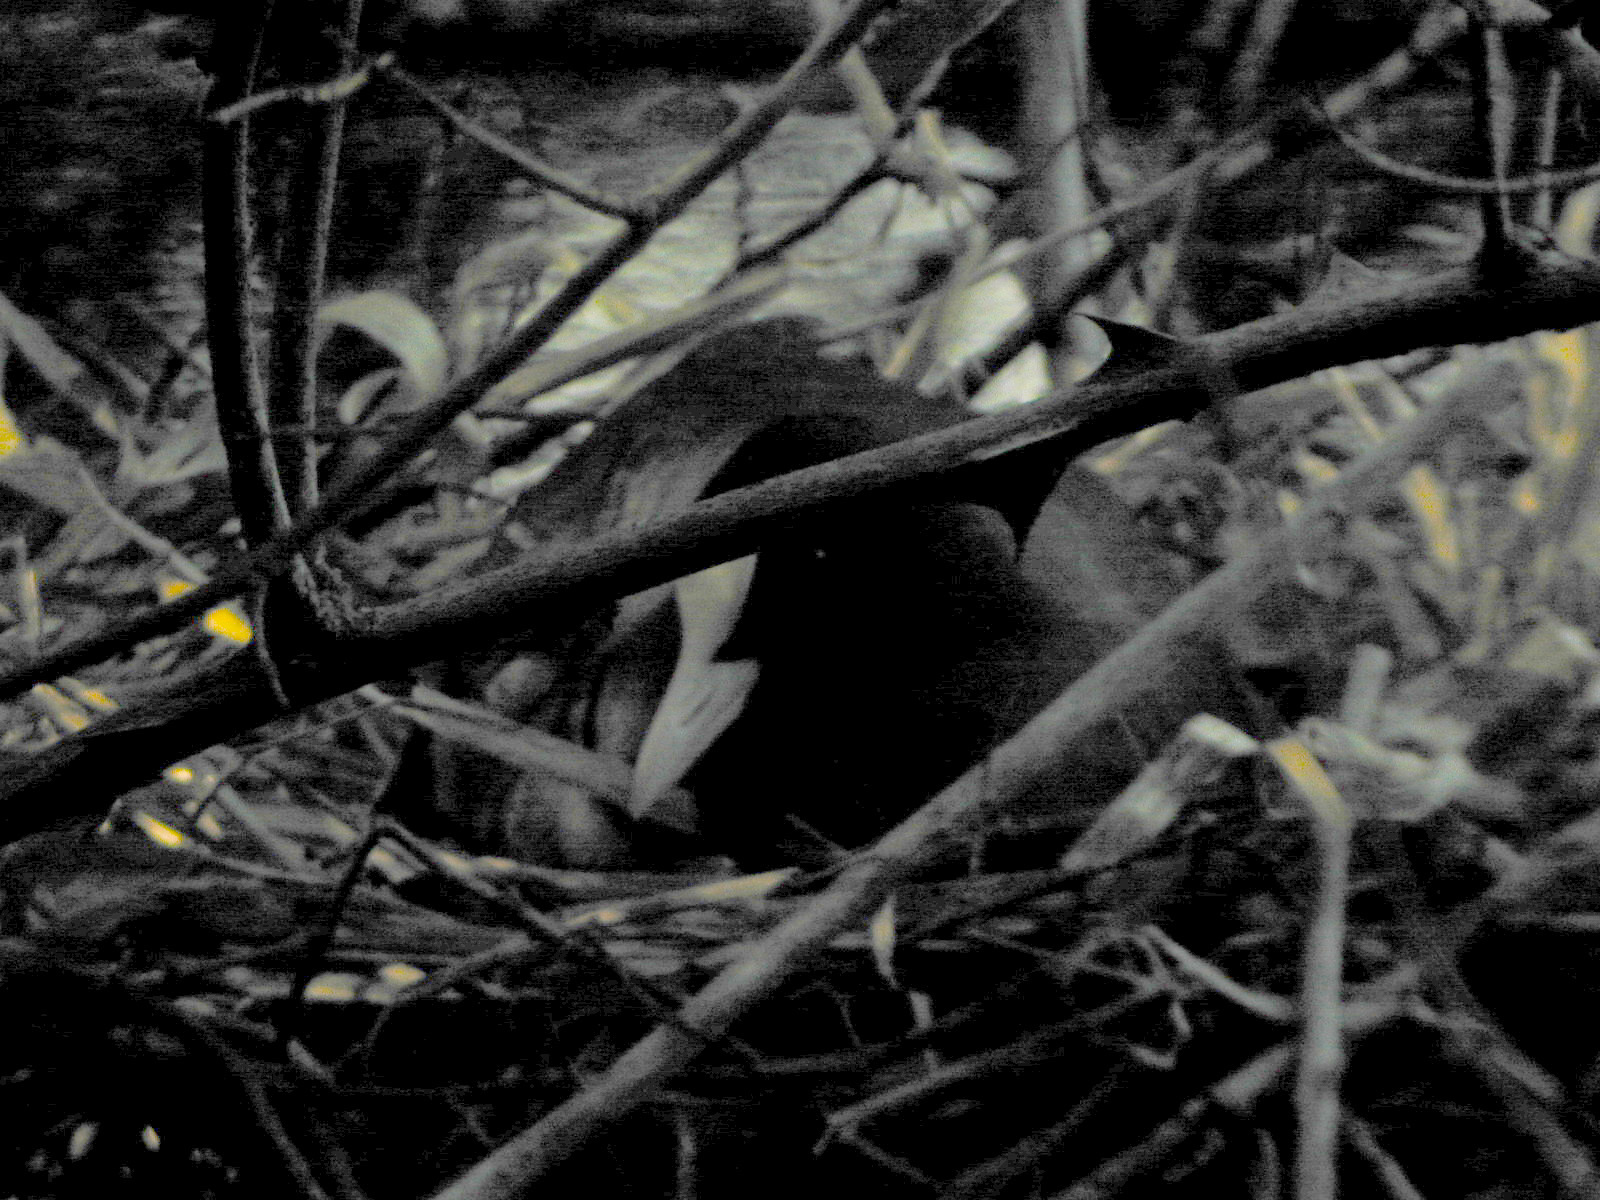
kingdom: Animalia
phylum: Chordata
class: Aves
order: Gruiformes
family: Rallidae
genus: Fulica
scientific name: Fulica atra
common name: Eurasian coot
